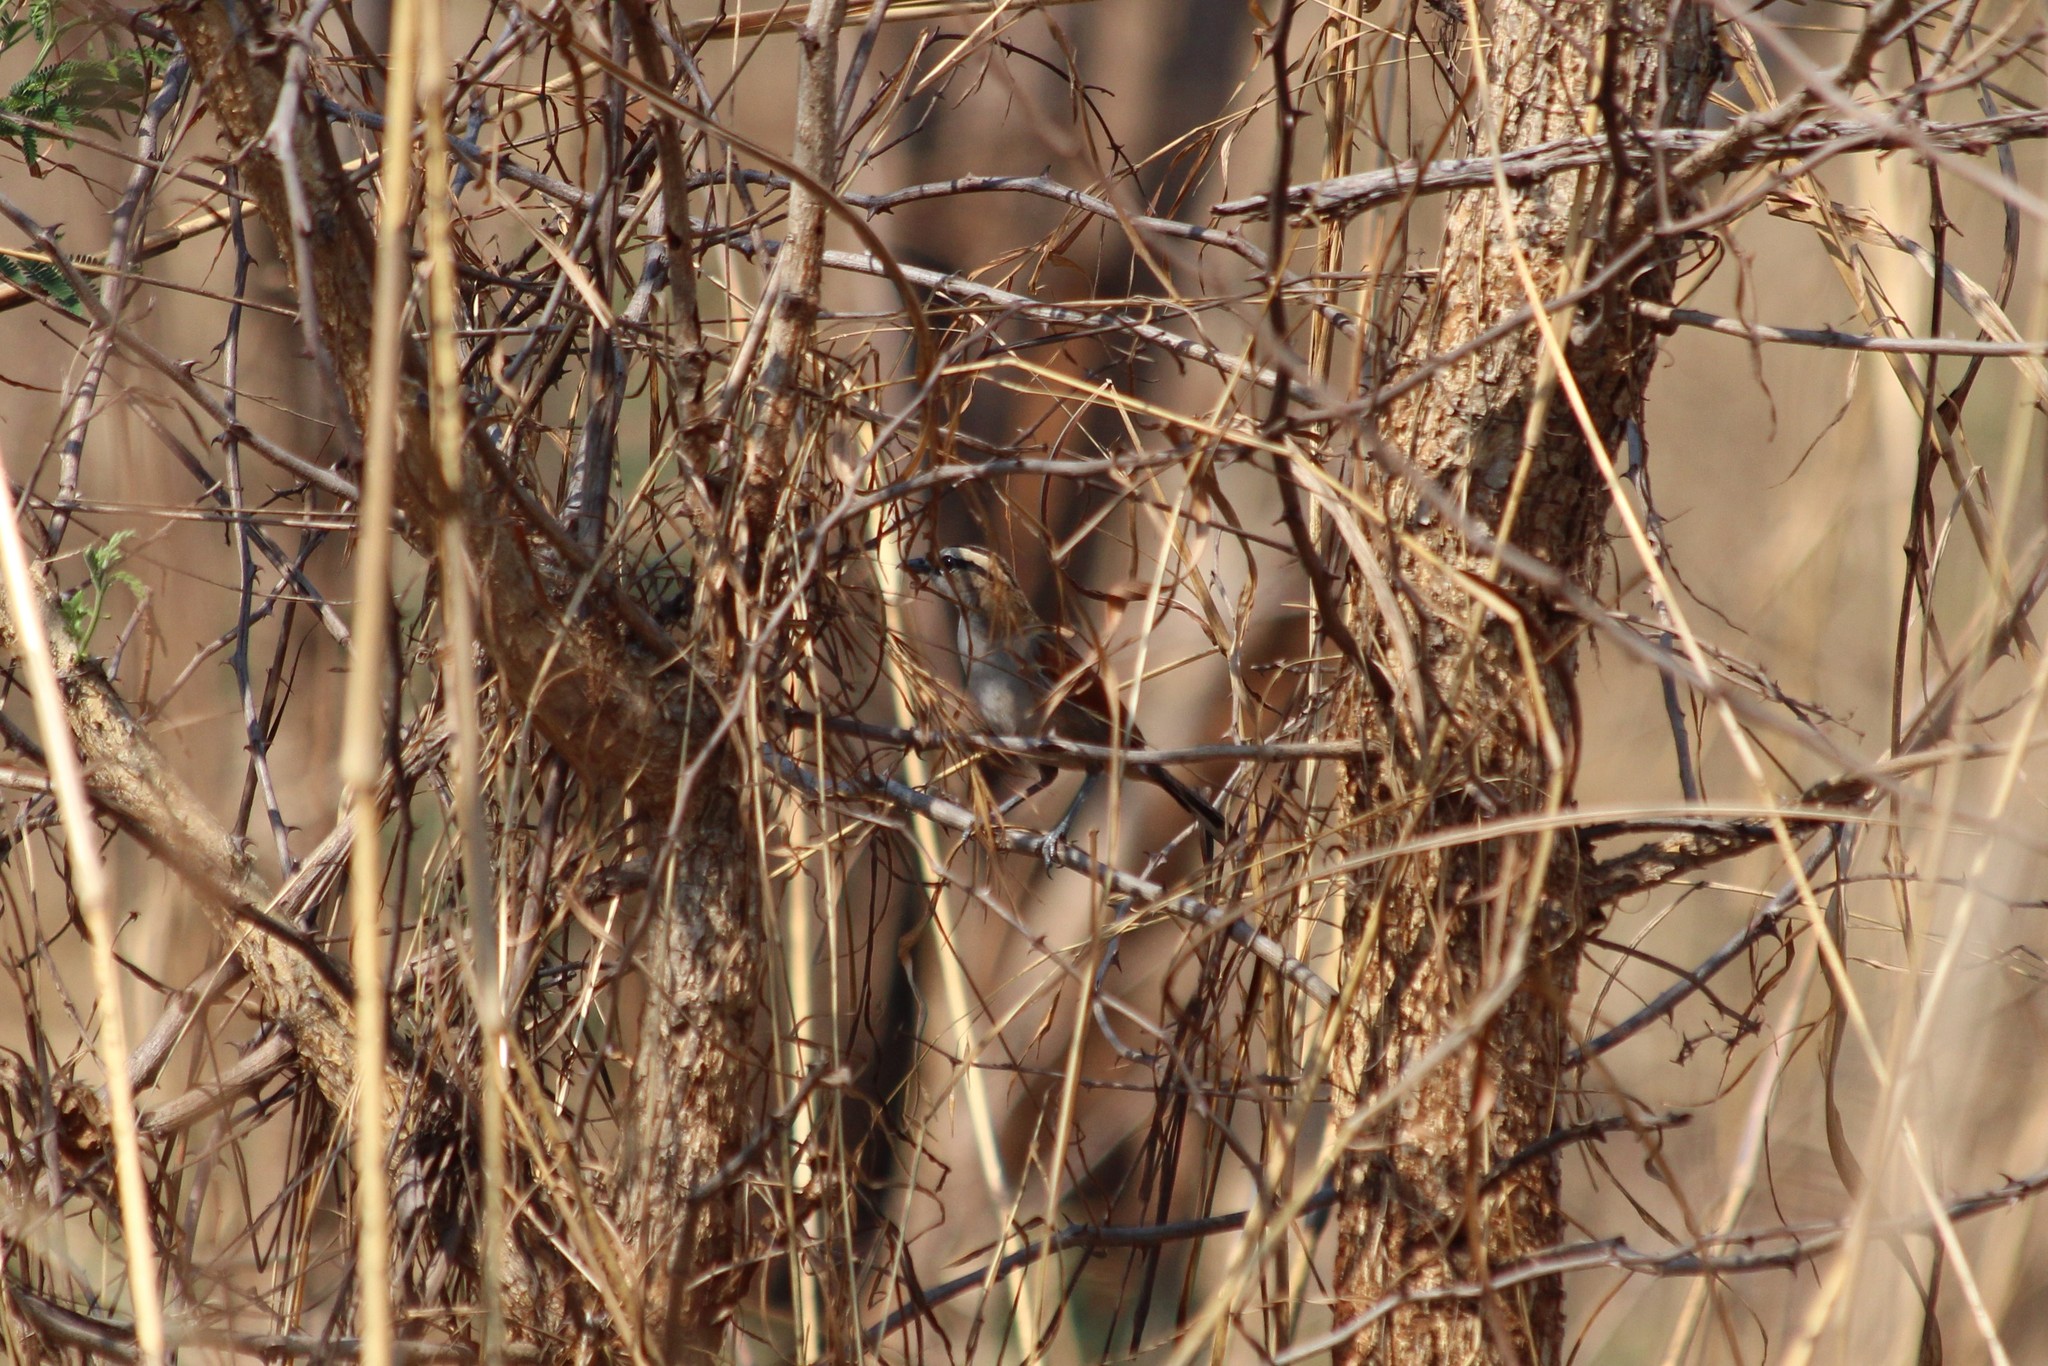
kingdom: Animalia
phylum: Chordata
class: Aves
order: Passeriformes
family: Malaconotidae
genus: Tchagra
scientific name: Tchagra australis
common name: Brown-crowned tchagra
